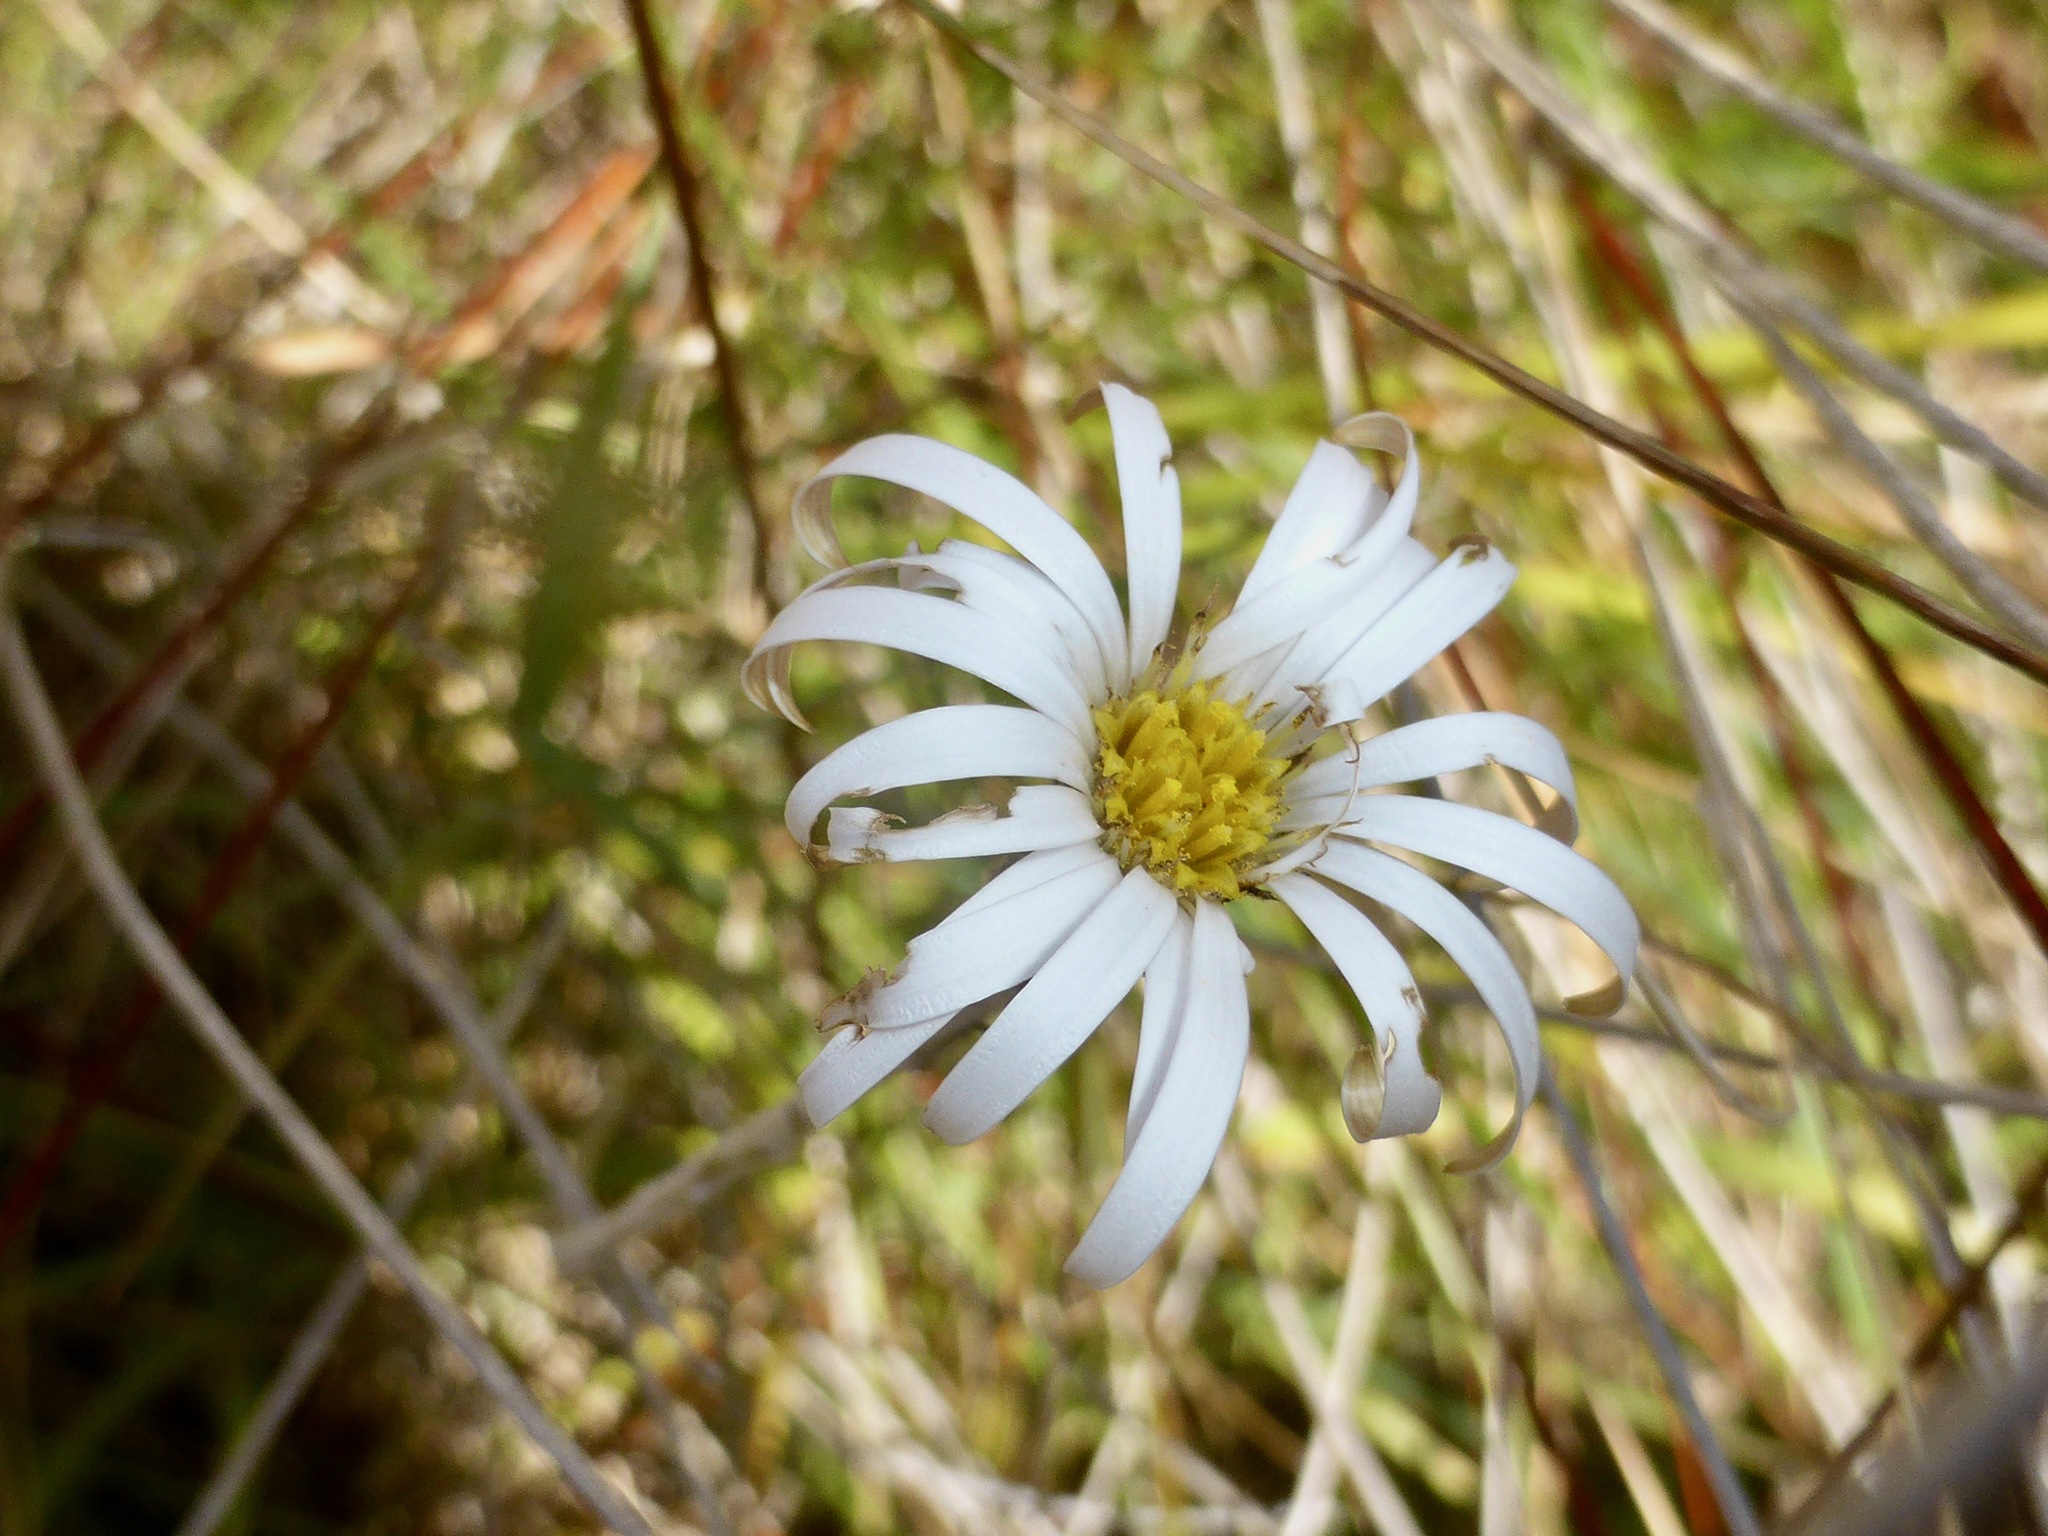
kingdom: Plantae
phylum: Tracheophyta
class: Magnoliopsida
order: Asterales
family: Asteraceae
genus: Celmisia
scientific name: Celmisia gracilenta
